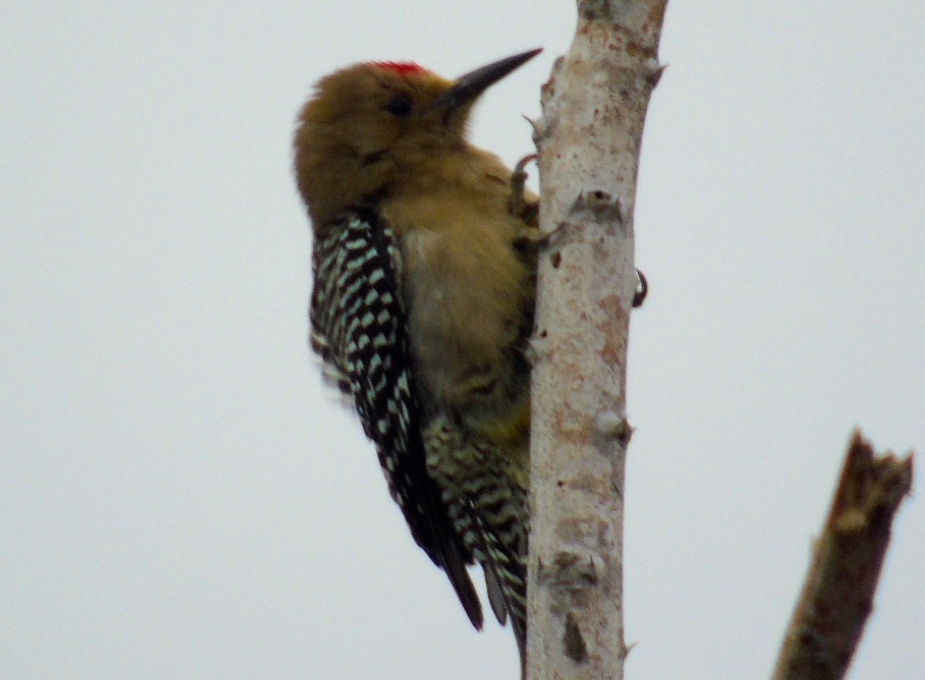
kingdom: Animalia
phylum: Chordata
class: Aves
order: Piciformes
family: Picidae
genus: Melanerpes
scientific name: Melanerpes uropygialis
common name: Gila woodpecker
